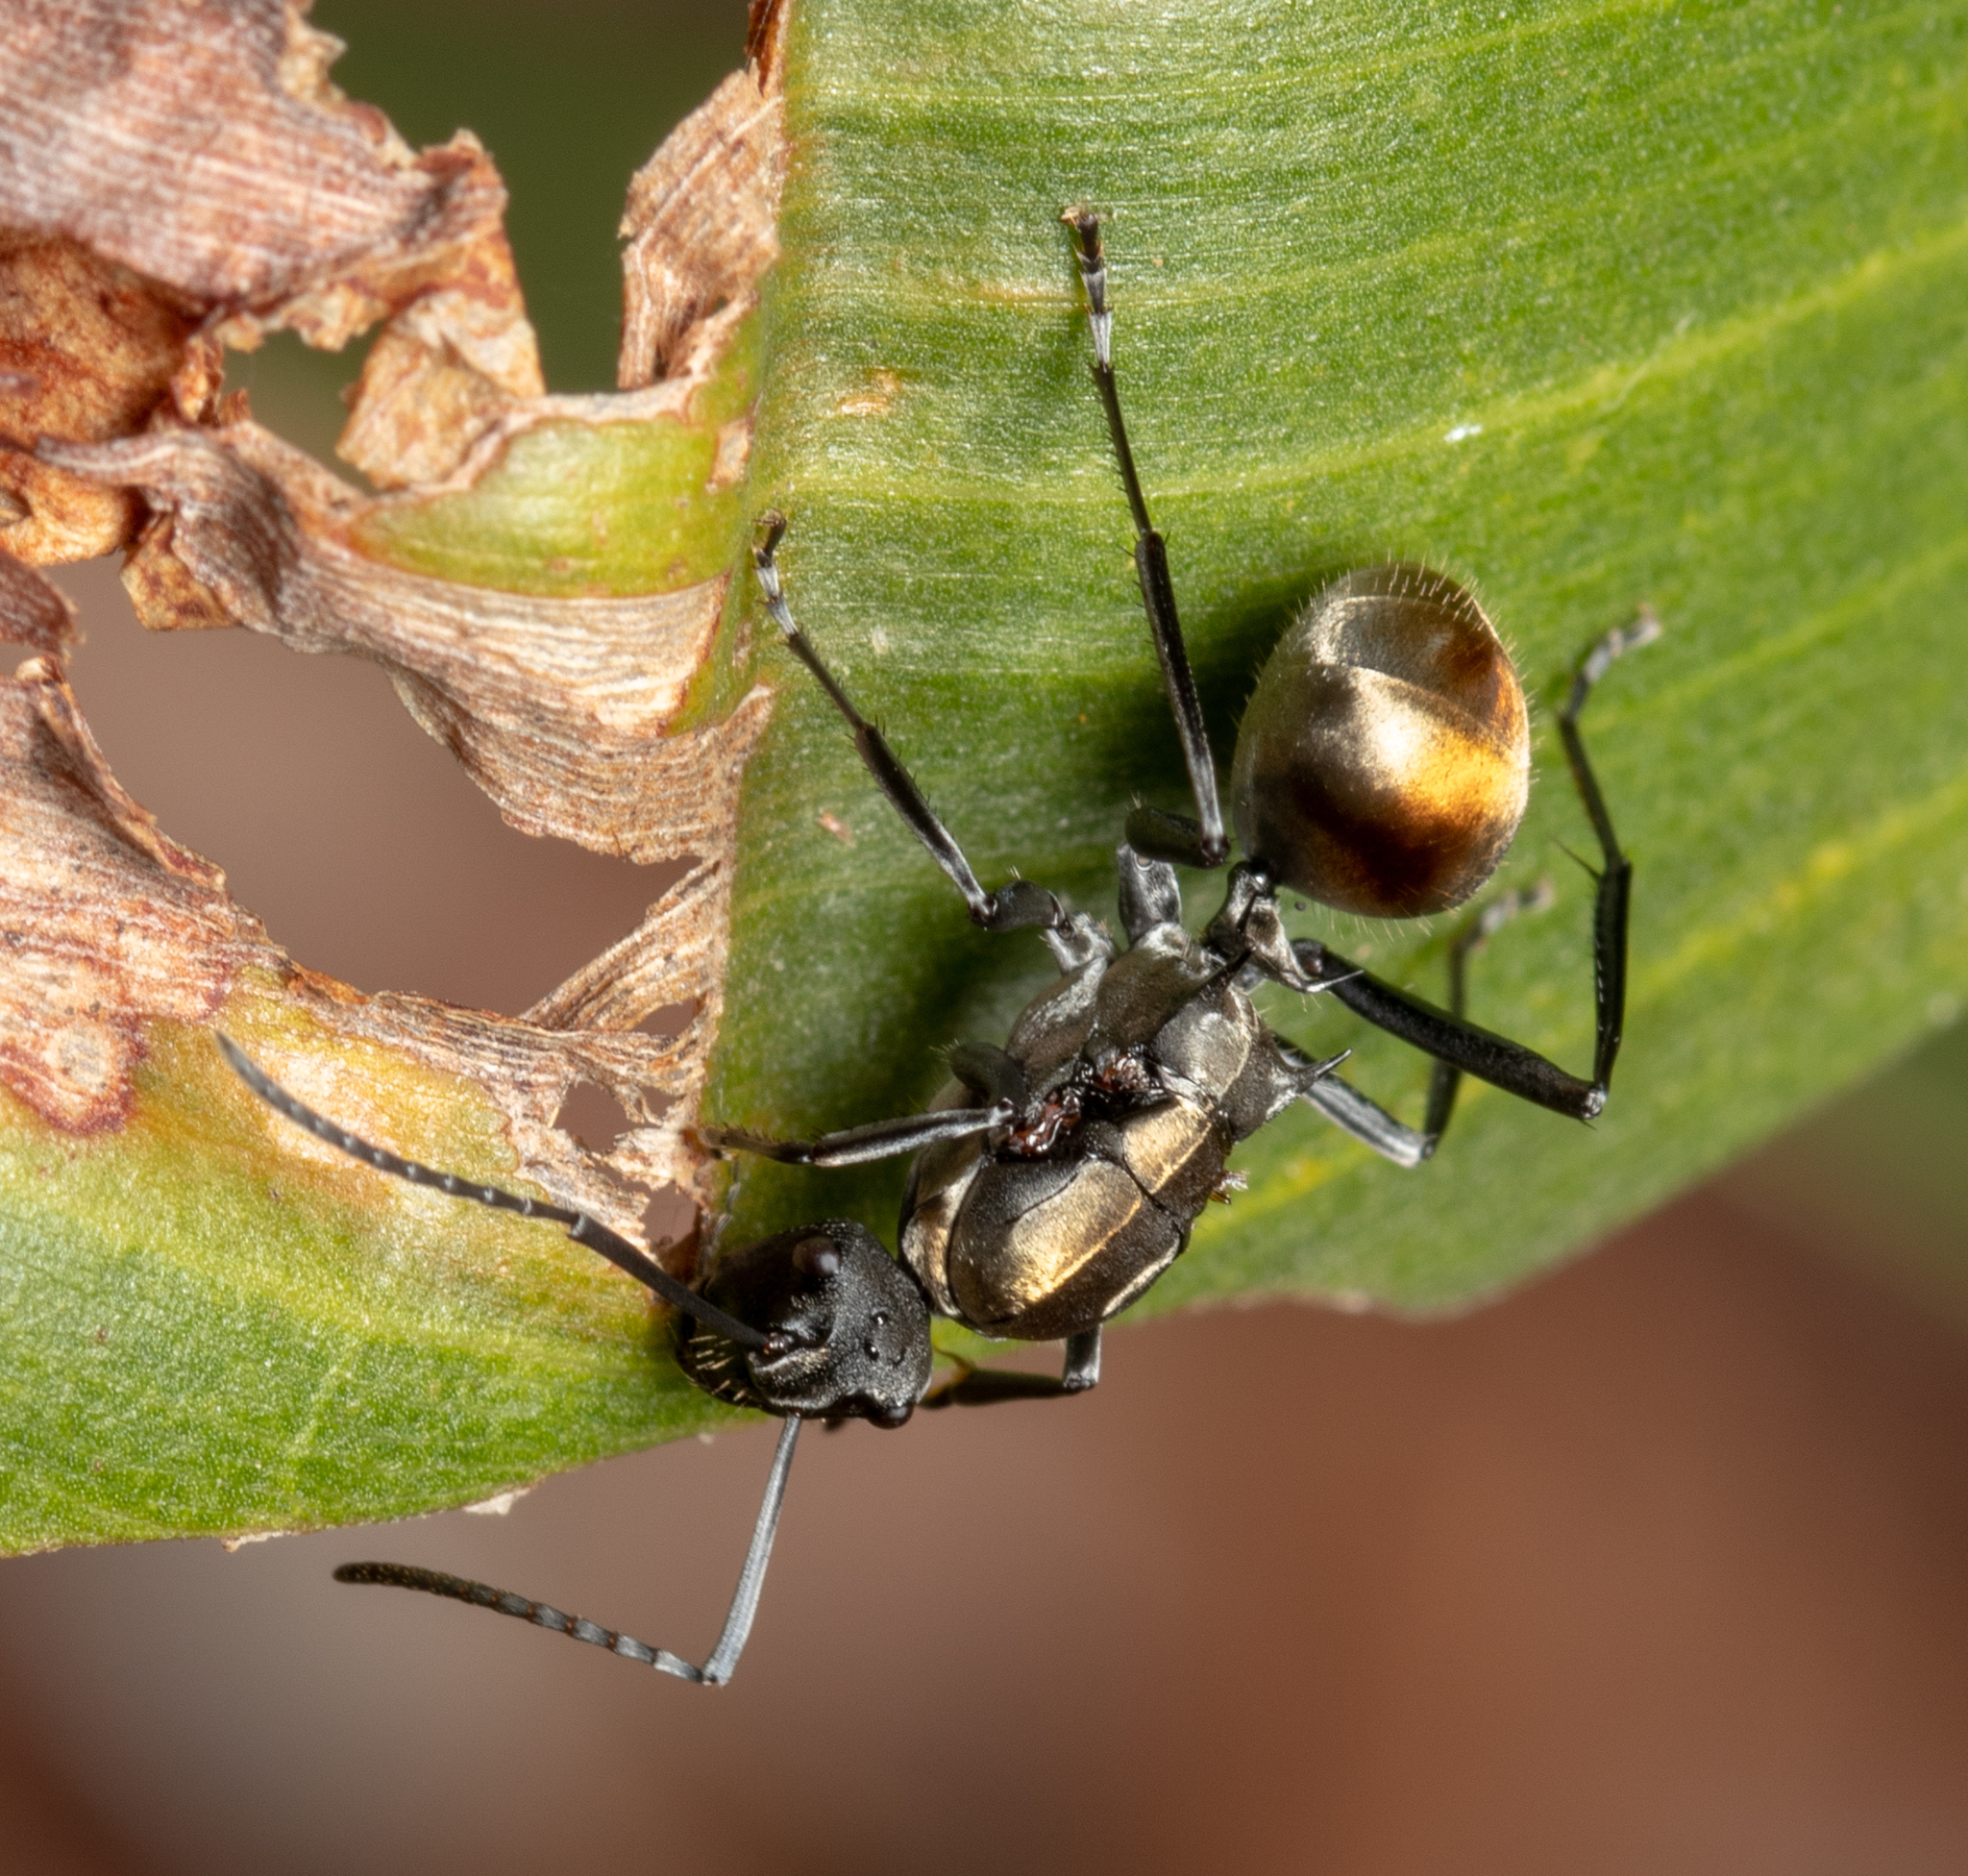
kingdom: Animalia
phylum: Arthropoda
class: Insecta
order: Hymenoptera
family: Formicidae
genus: Polyrhachis
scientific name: Polyrhachis ammon
